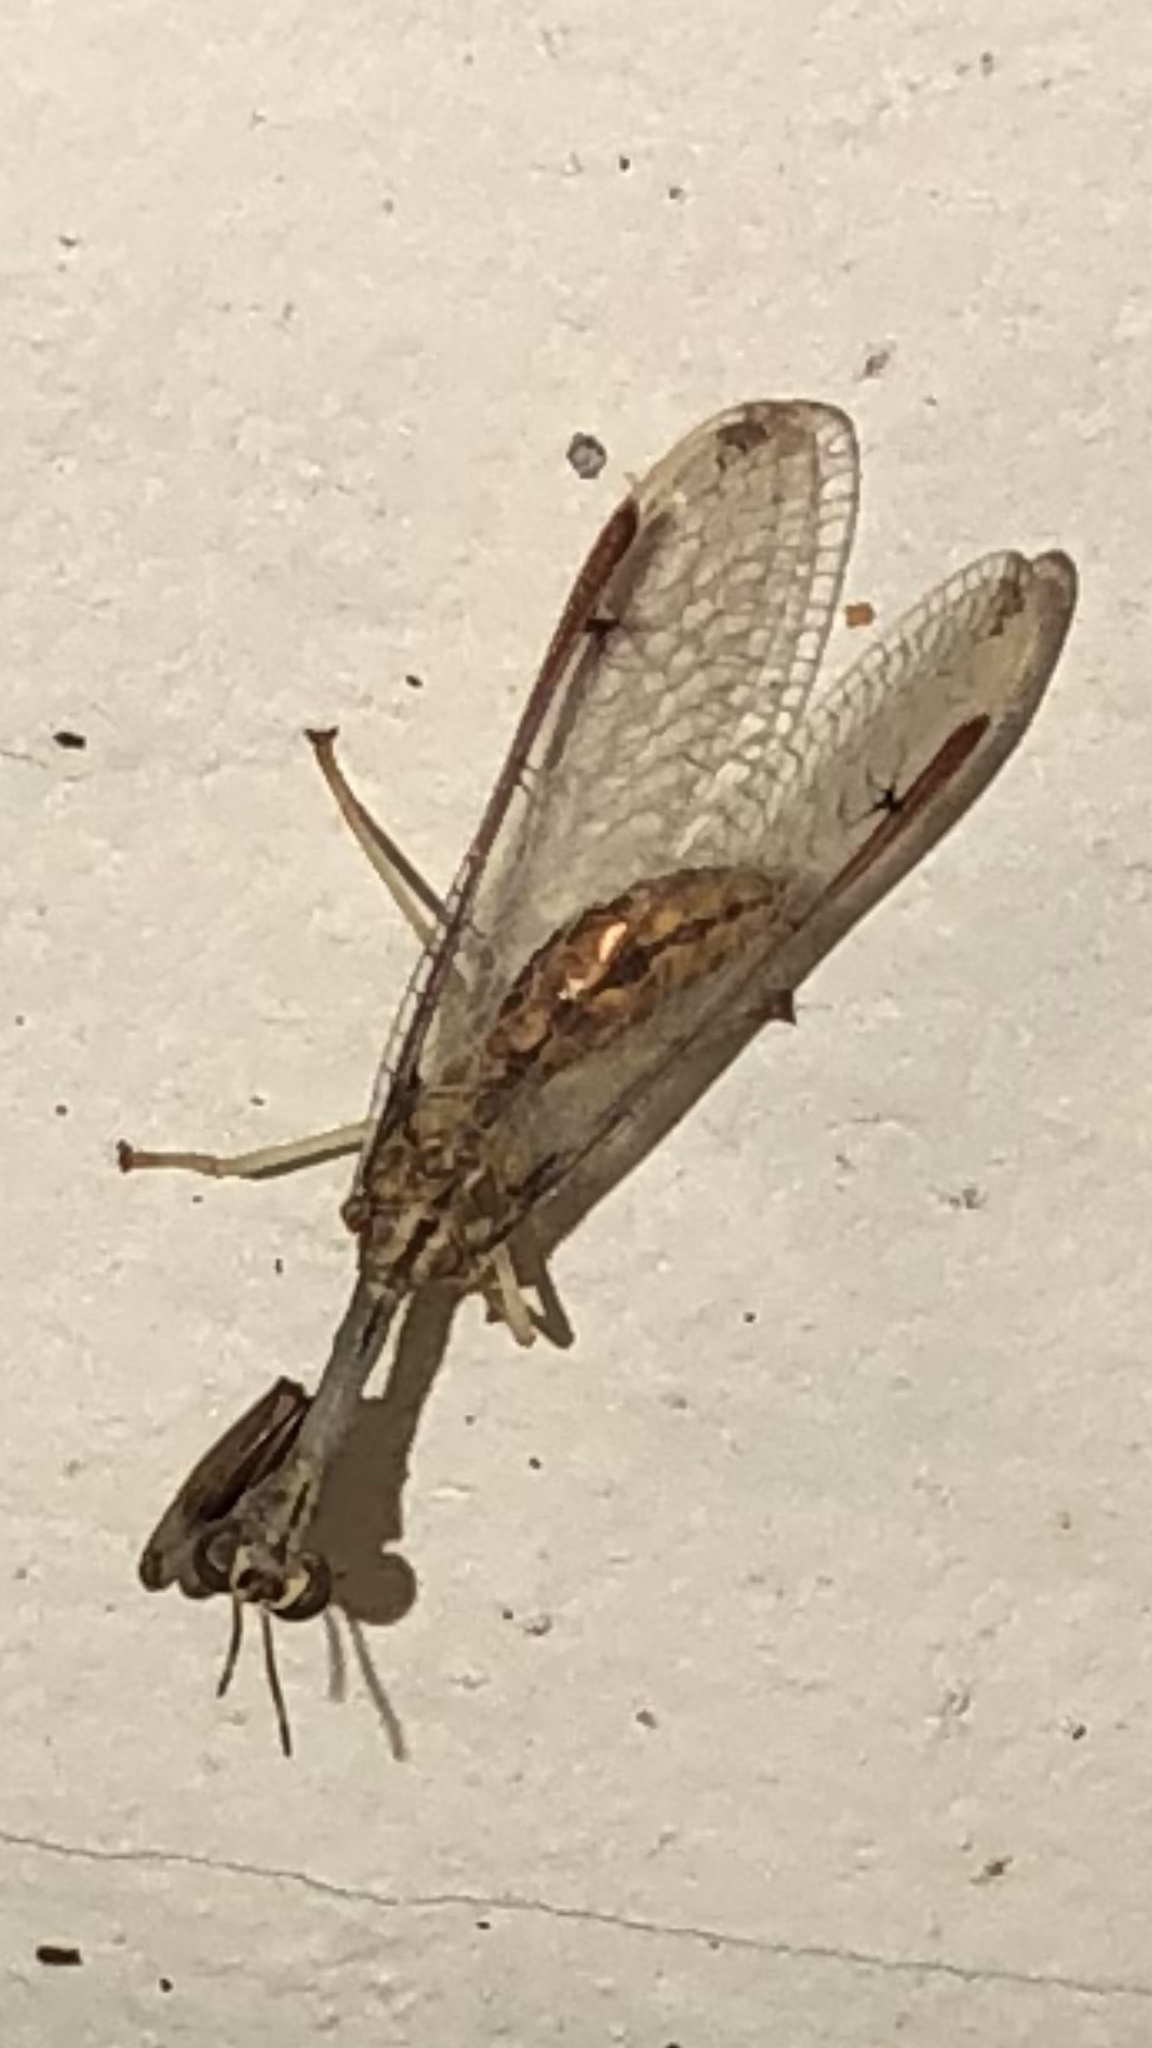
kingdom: Animalia
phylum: Arthropoda
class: Insecta
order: Neuroptera
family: Mantispidae
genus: Dicromantispa
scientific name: Dicromantispa interrupta
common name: Four-spotted mantidfly
